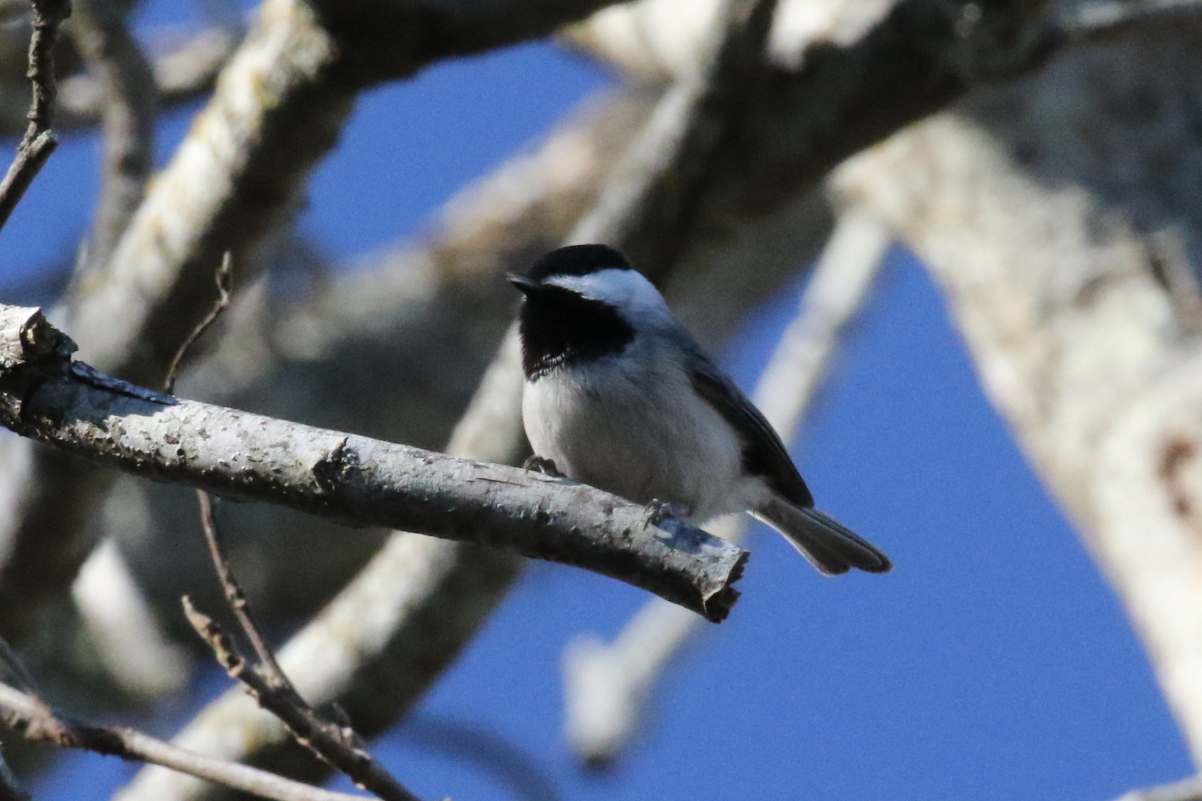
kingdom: Animalia
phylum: Chordata
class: Aves
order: Passeriformes
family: Paridae
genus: Poecile
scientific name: Poecile carolinensis
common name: Carolina chickadee
